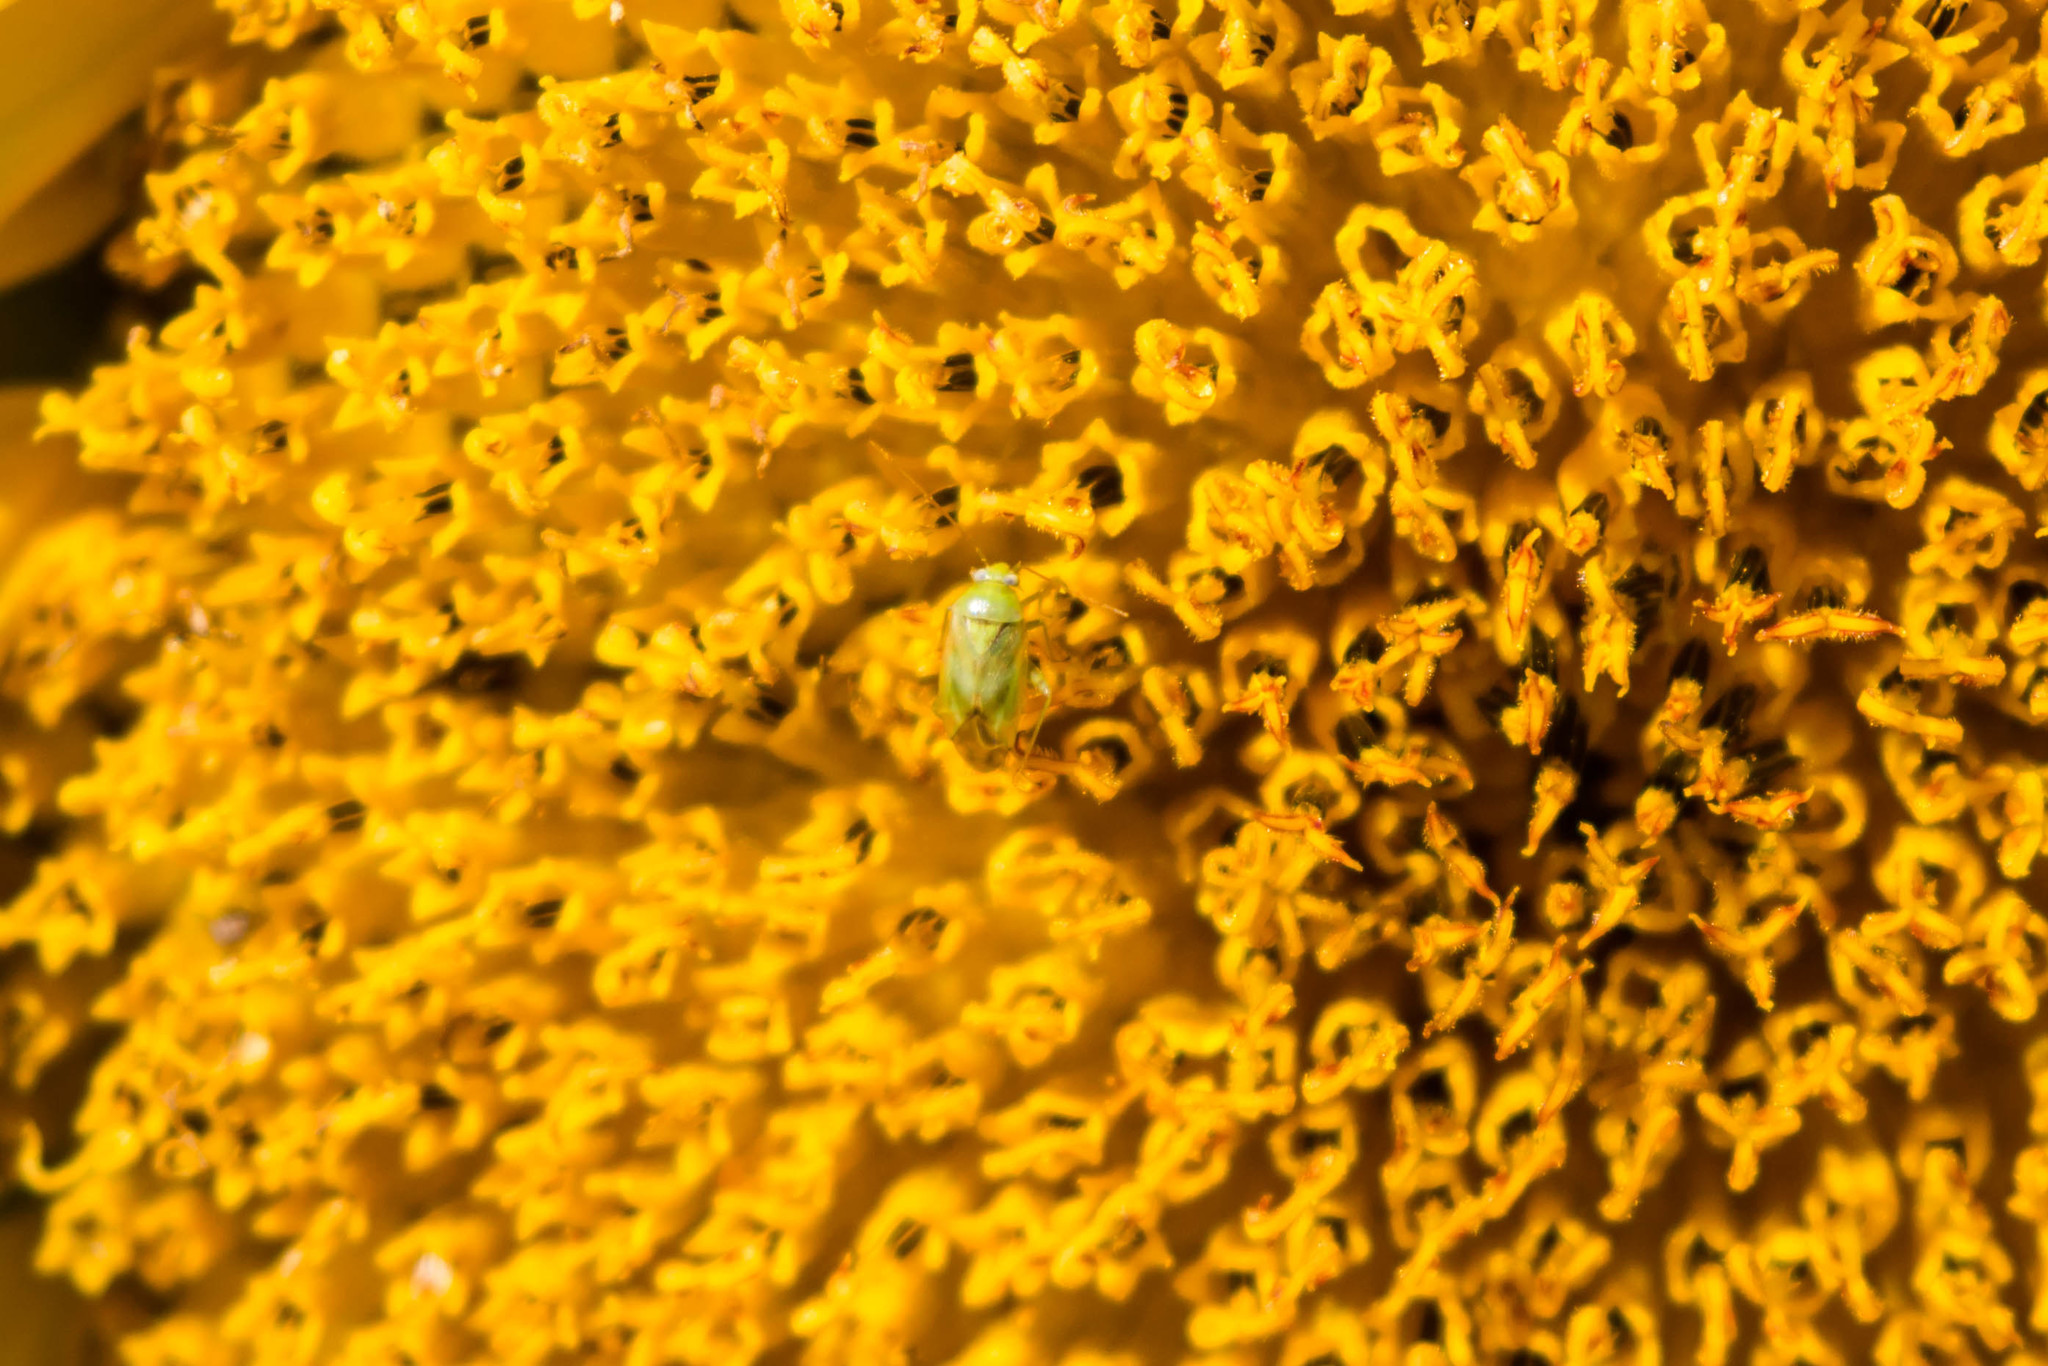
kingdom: Animalia
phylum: Arthropoda
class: Insecta
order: Hemiptera
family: Miridae
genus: Taylorilygus
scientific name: Taylorilygus apicalis
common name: Plant bug
